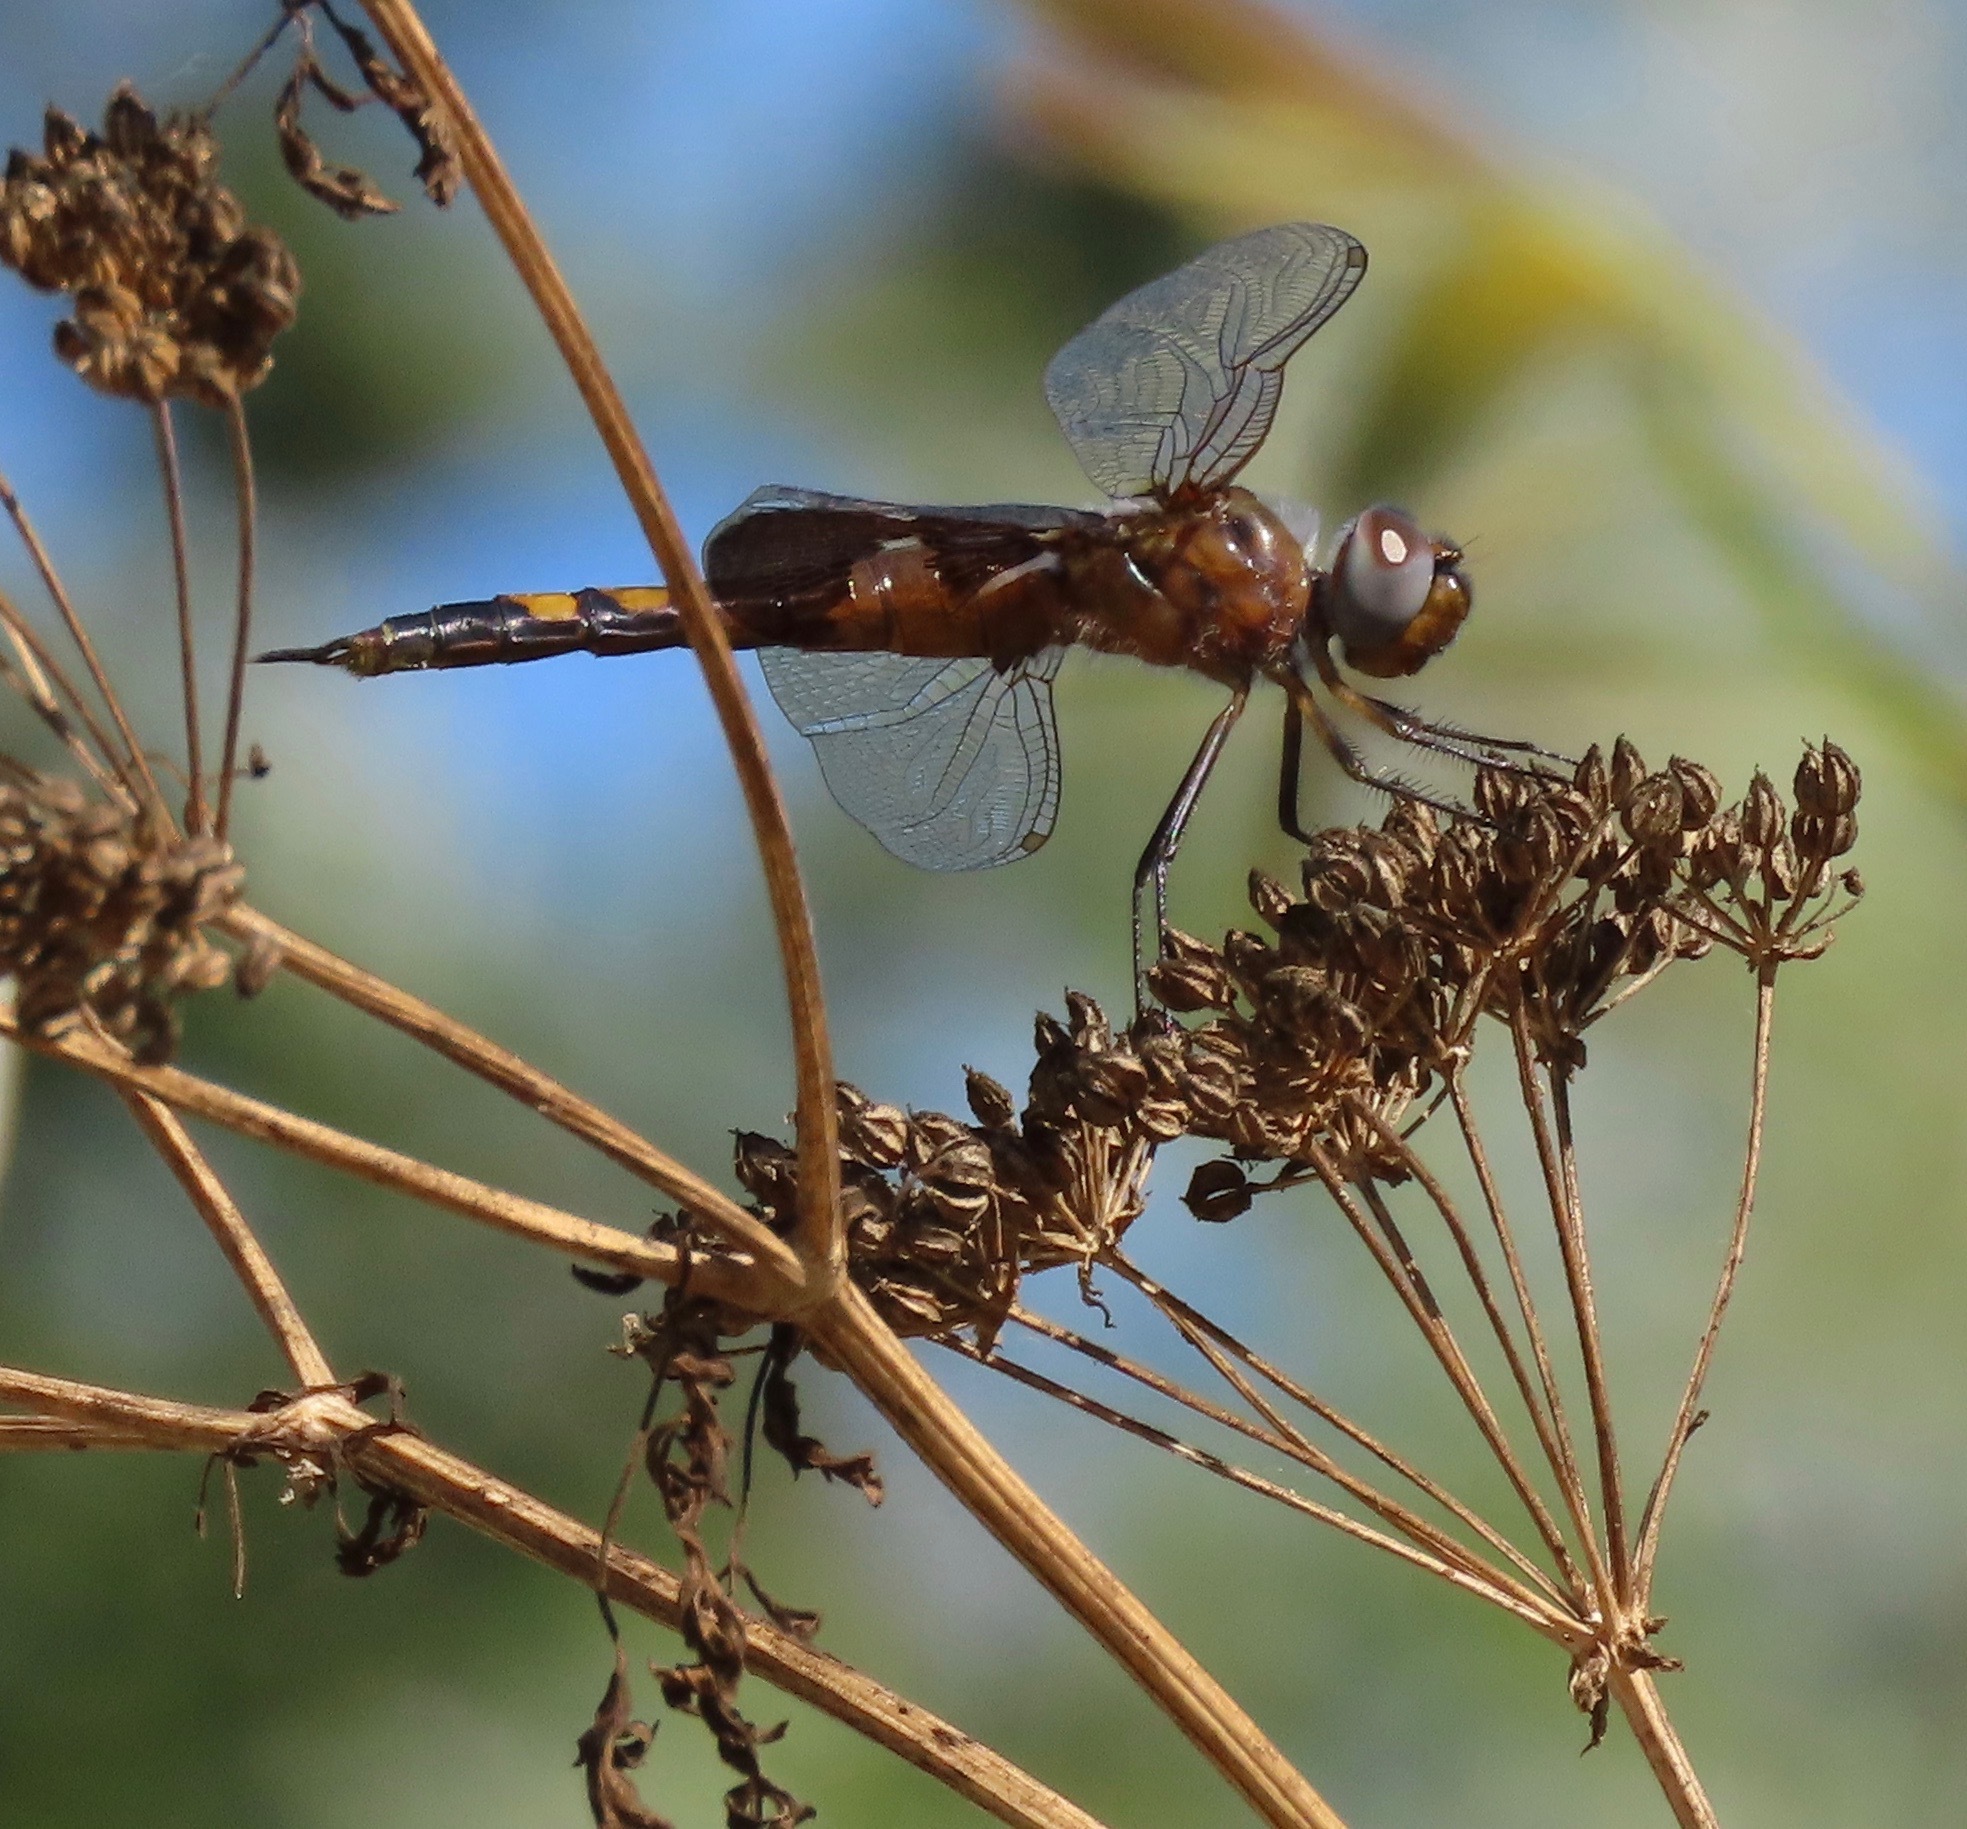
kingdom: Animalia
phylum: Arthropoda
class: Insecta
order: Odonata
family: Libellulidae
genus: Tramea
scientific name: Tramea lacerata
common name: Black saddlebags
